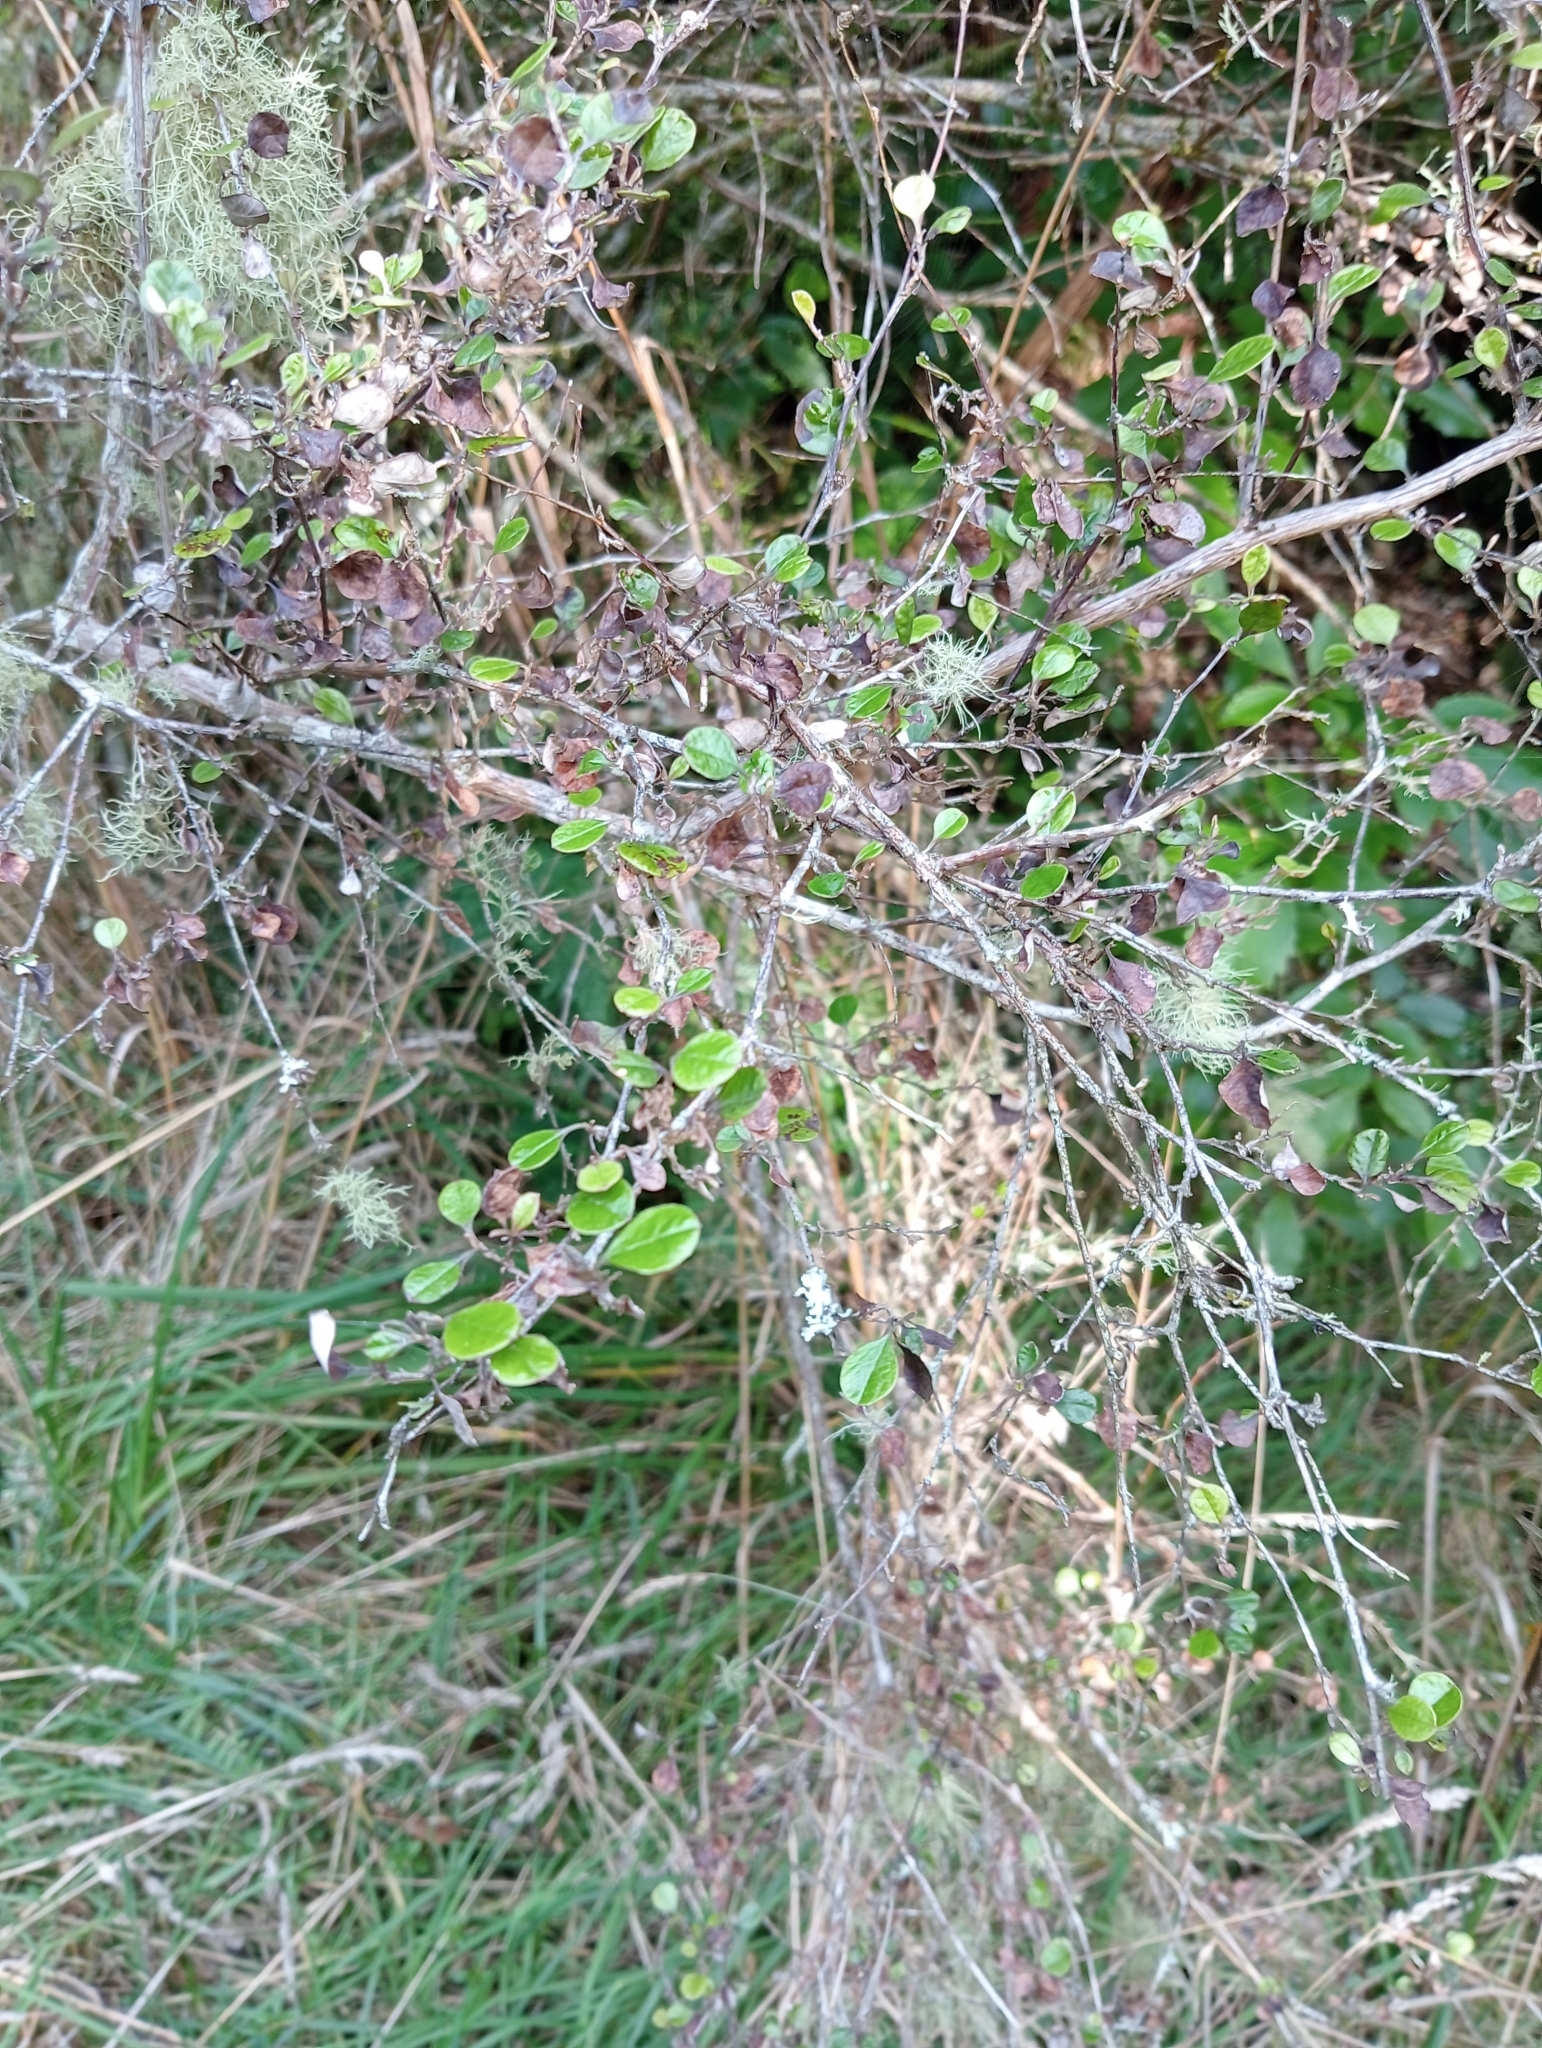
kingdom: Plantae
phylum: Tracheophyta
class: Magnoliopsida
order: Asterales
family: Asteraceae
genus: Ozothamnus
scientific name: Ozothamnus glomeratus
